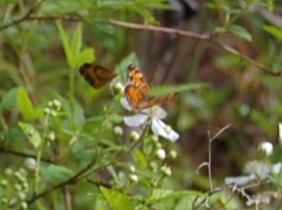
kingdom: Animalia
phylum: Arthropoda
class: Insecta
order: Lepidoptera
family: Nymphalidae
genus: Phyciodes
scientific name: Phyciodes tharos
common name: Pearl crescent
